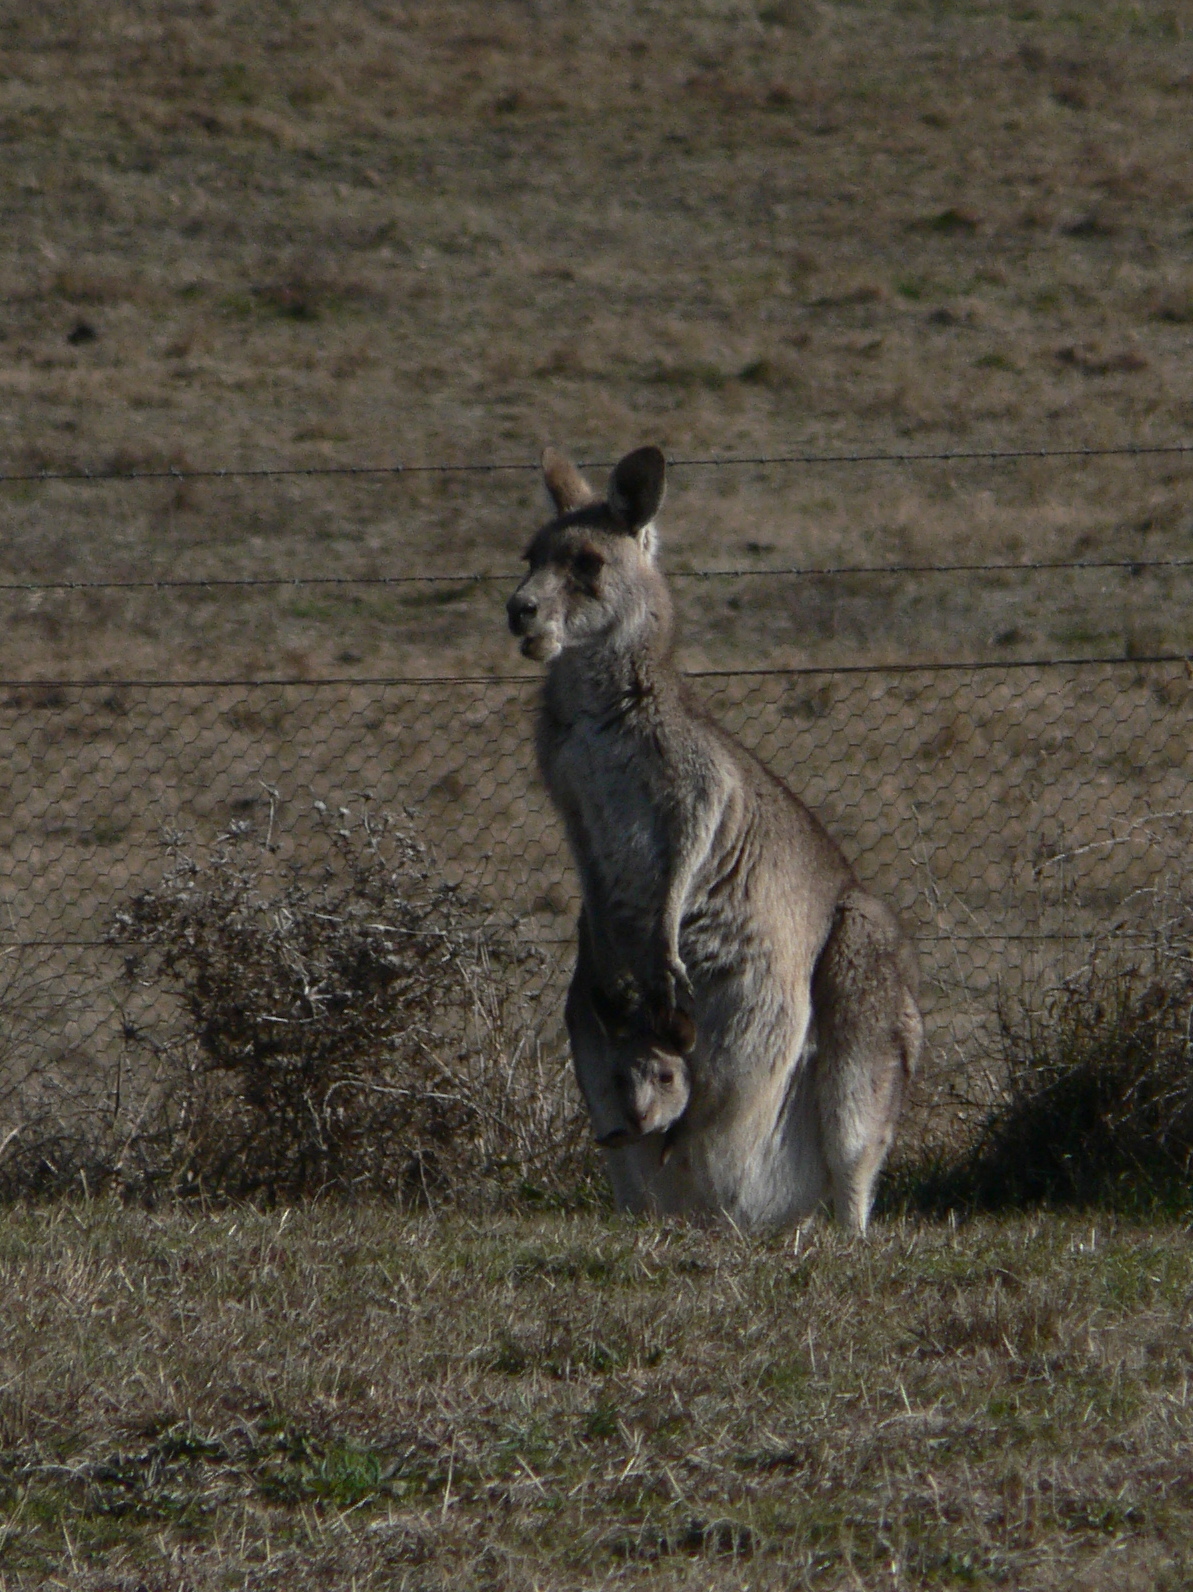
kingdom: Animalia
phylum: Chordata
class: Mammalia
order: Diprotodontia
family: Macropodidae
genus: Macropus
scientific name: Macropus giganteus
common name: Eastern grey kangaroo
